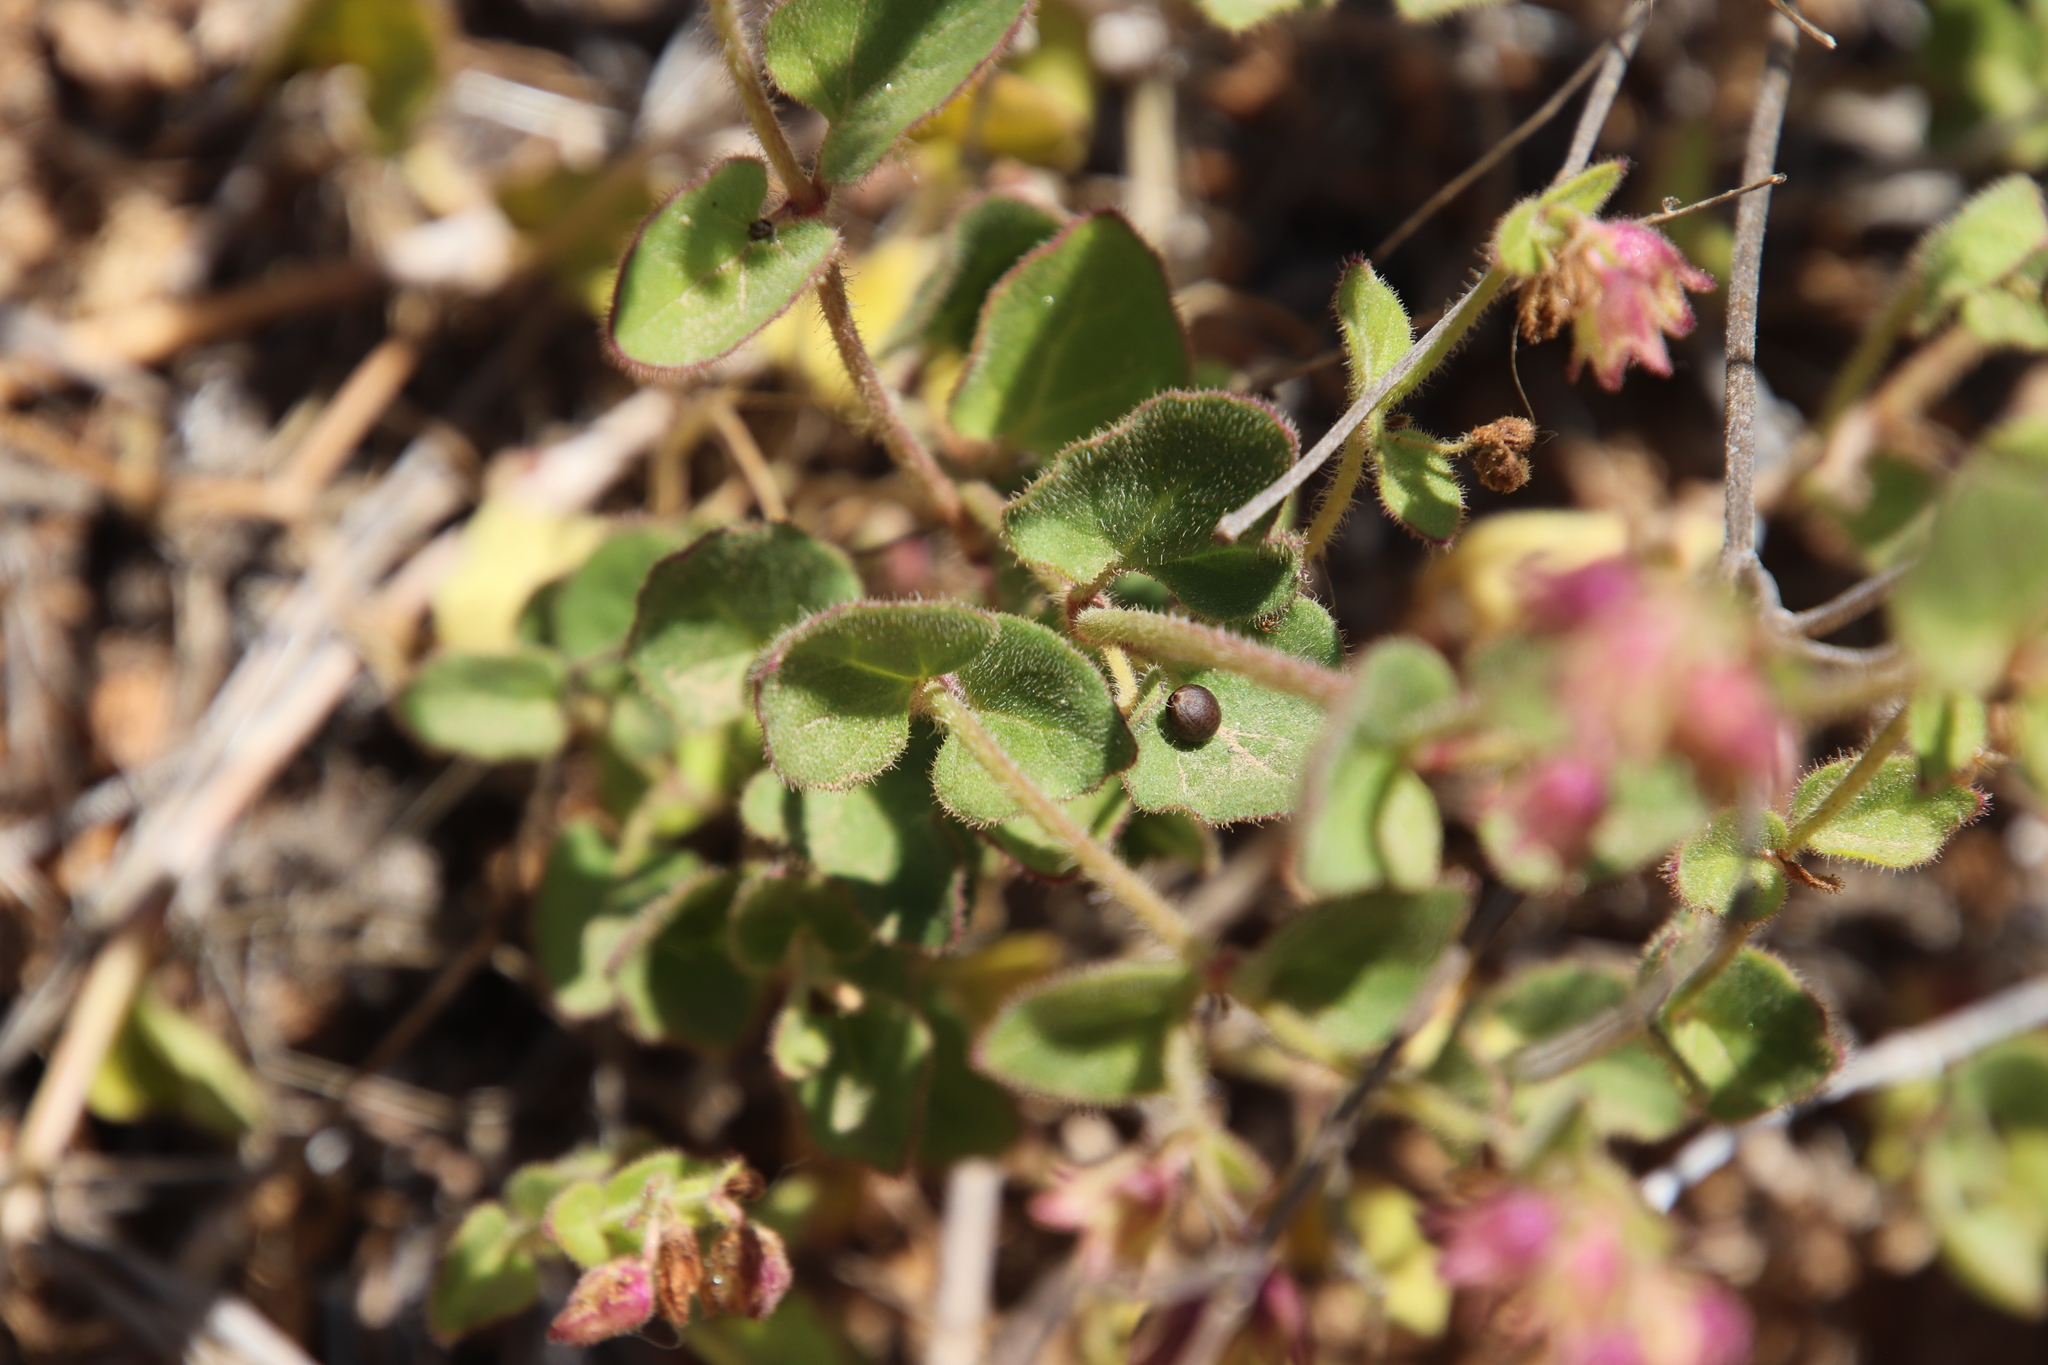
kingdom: Plantae
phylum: Tracheophyta
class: Magnoliopsida
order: Caryophyllales
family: Nyctaginaceae
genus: Mirabilis
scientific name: Mirabilis laevis
